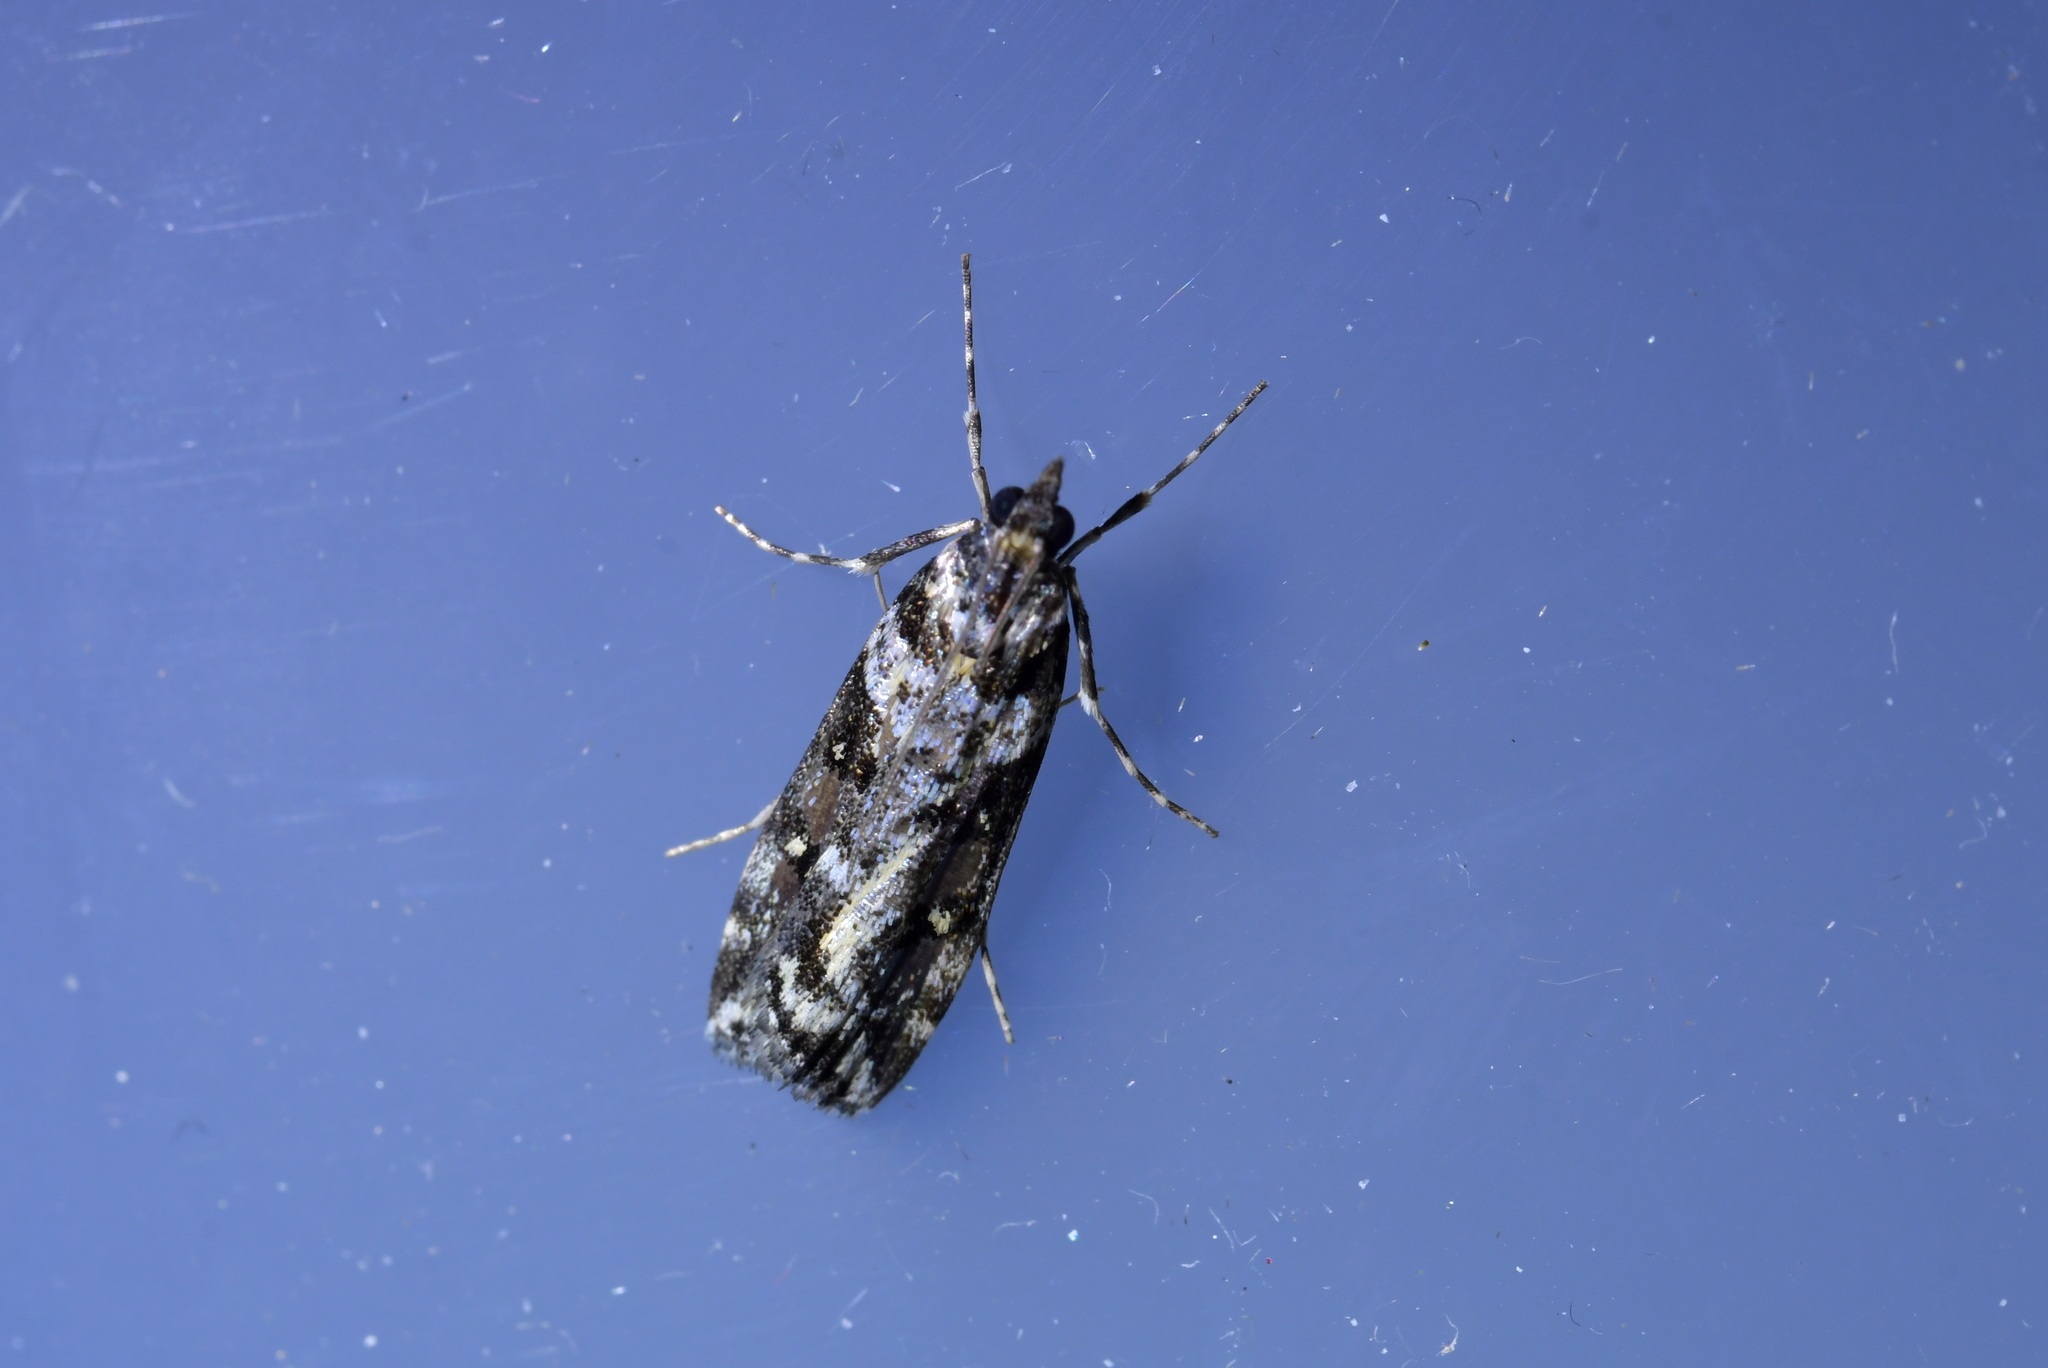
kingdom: Animalia
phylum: Arthropoda
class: Insecta
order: Lepidoptera
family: Crambidae
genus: Eudonia
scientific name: Eudonia diphtheralis
